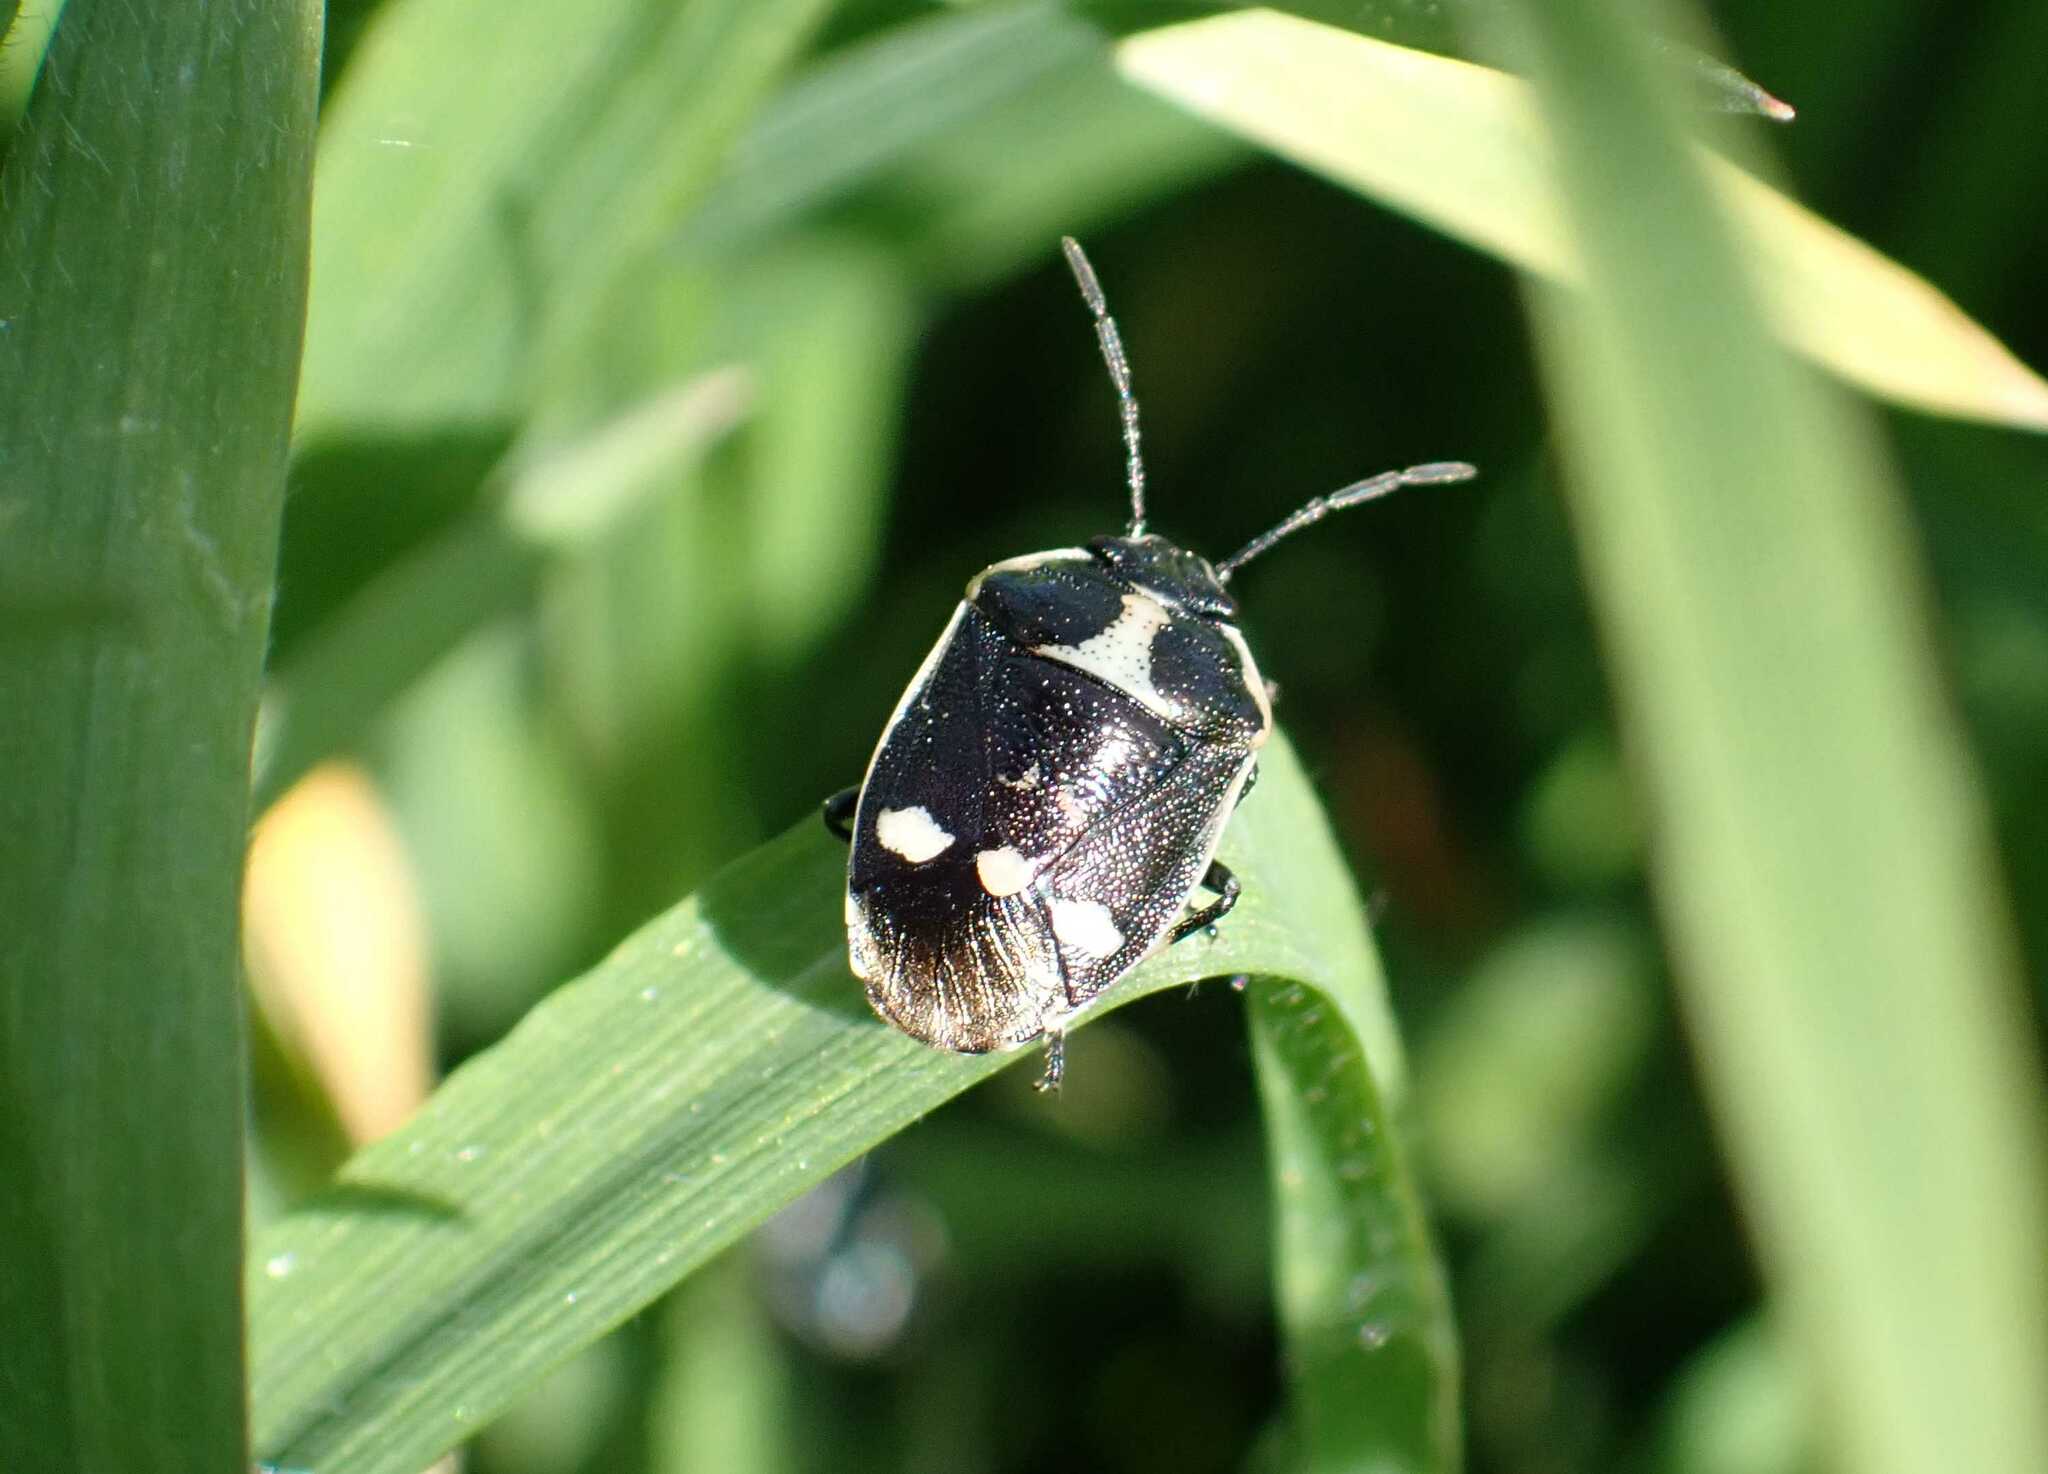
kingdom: Animalia
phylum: Arthropoda
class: Insecta
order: Hemiptera
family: Pentatomidae
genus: Eurydema
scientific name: Eurydema oleracea
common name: Cabbage bug
